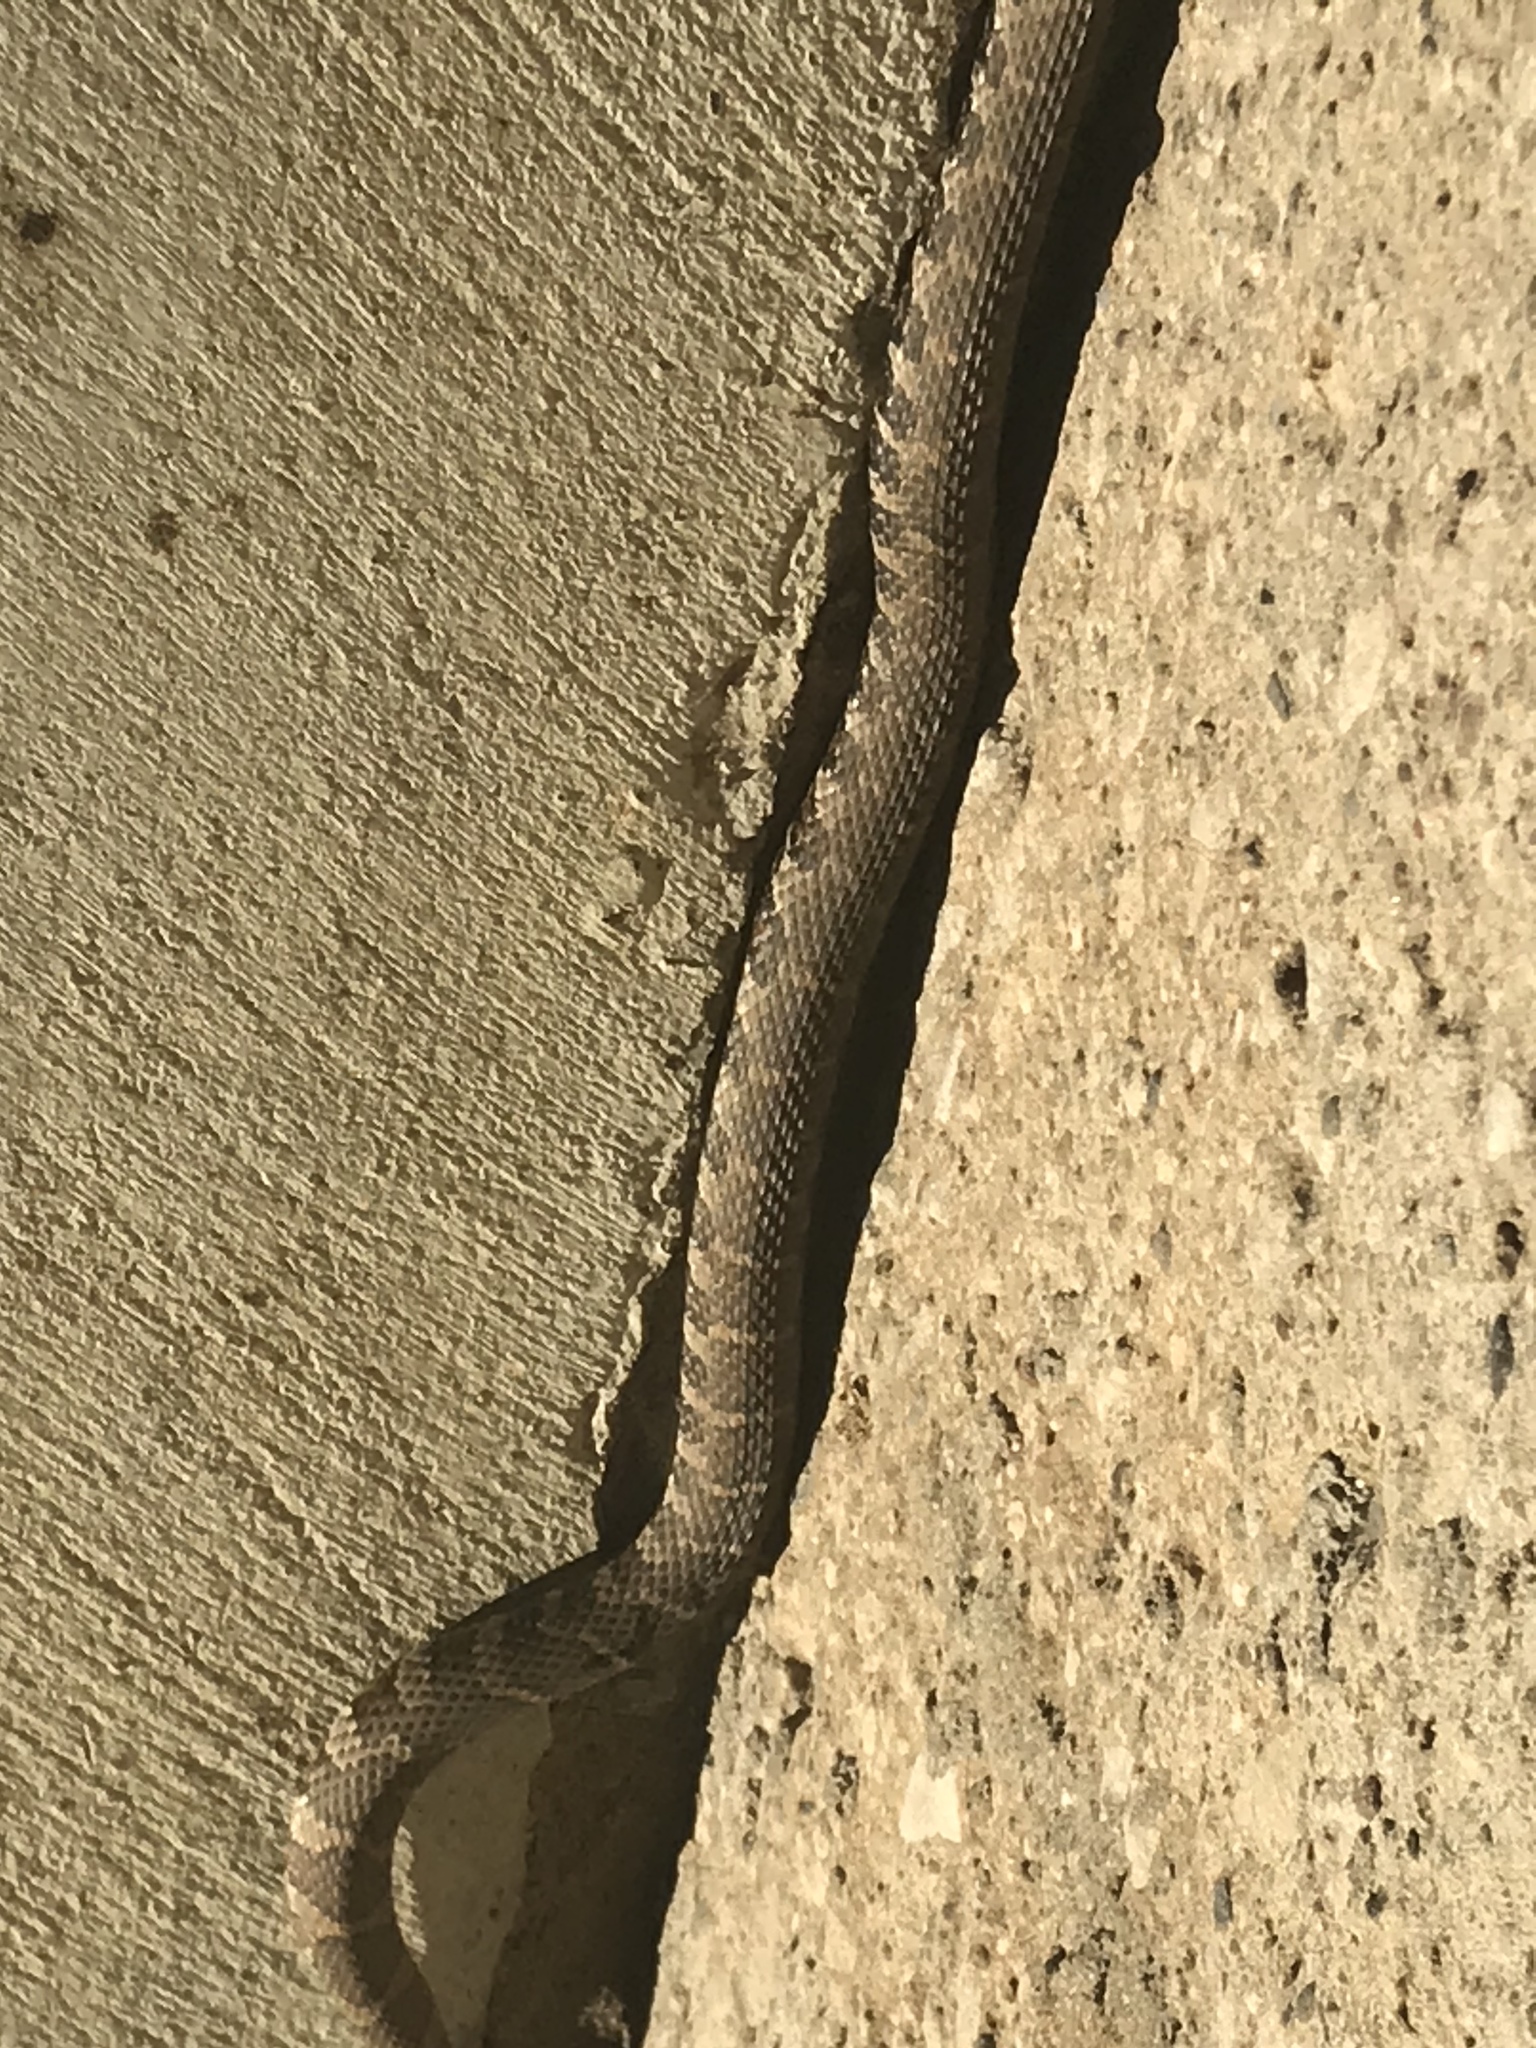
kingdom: Animalia
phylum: Chordata
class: Squamata
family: Colubridae
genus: Nerodia
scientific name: Nerodia sipedon
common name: Northern water snake
